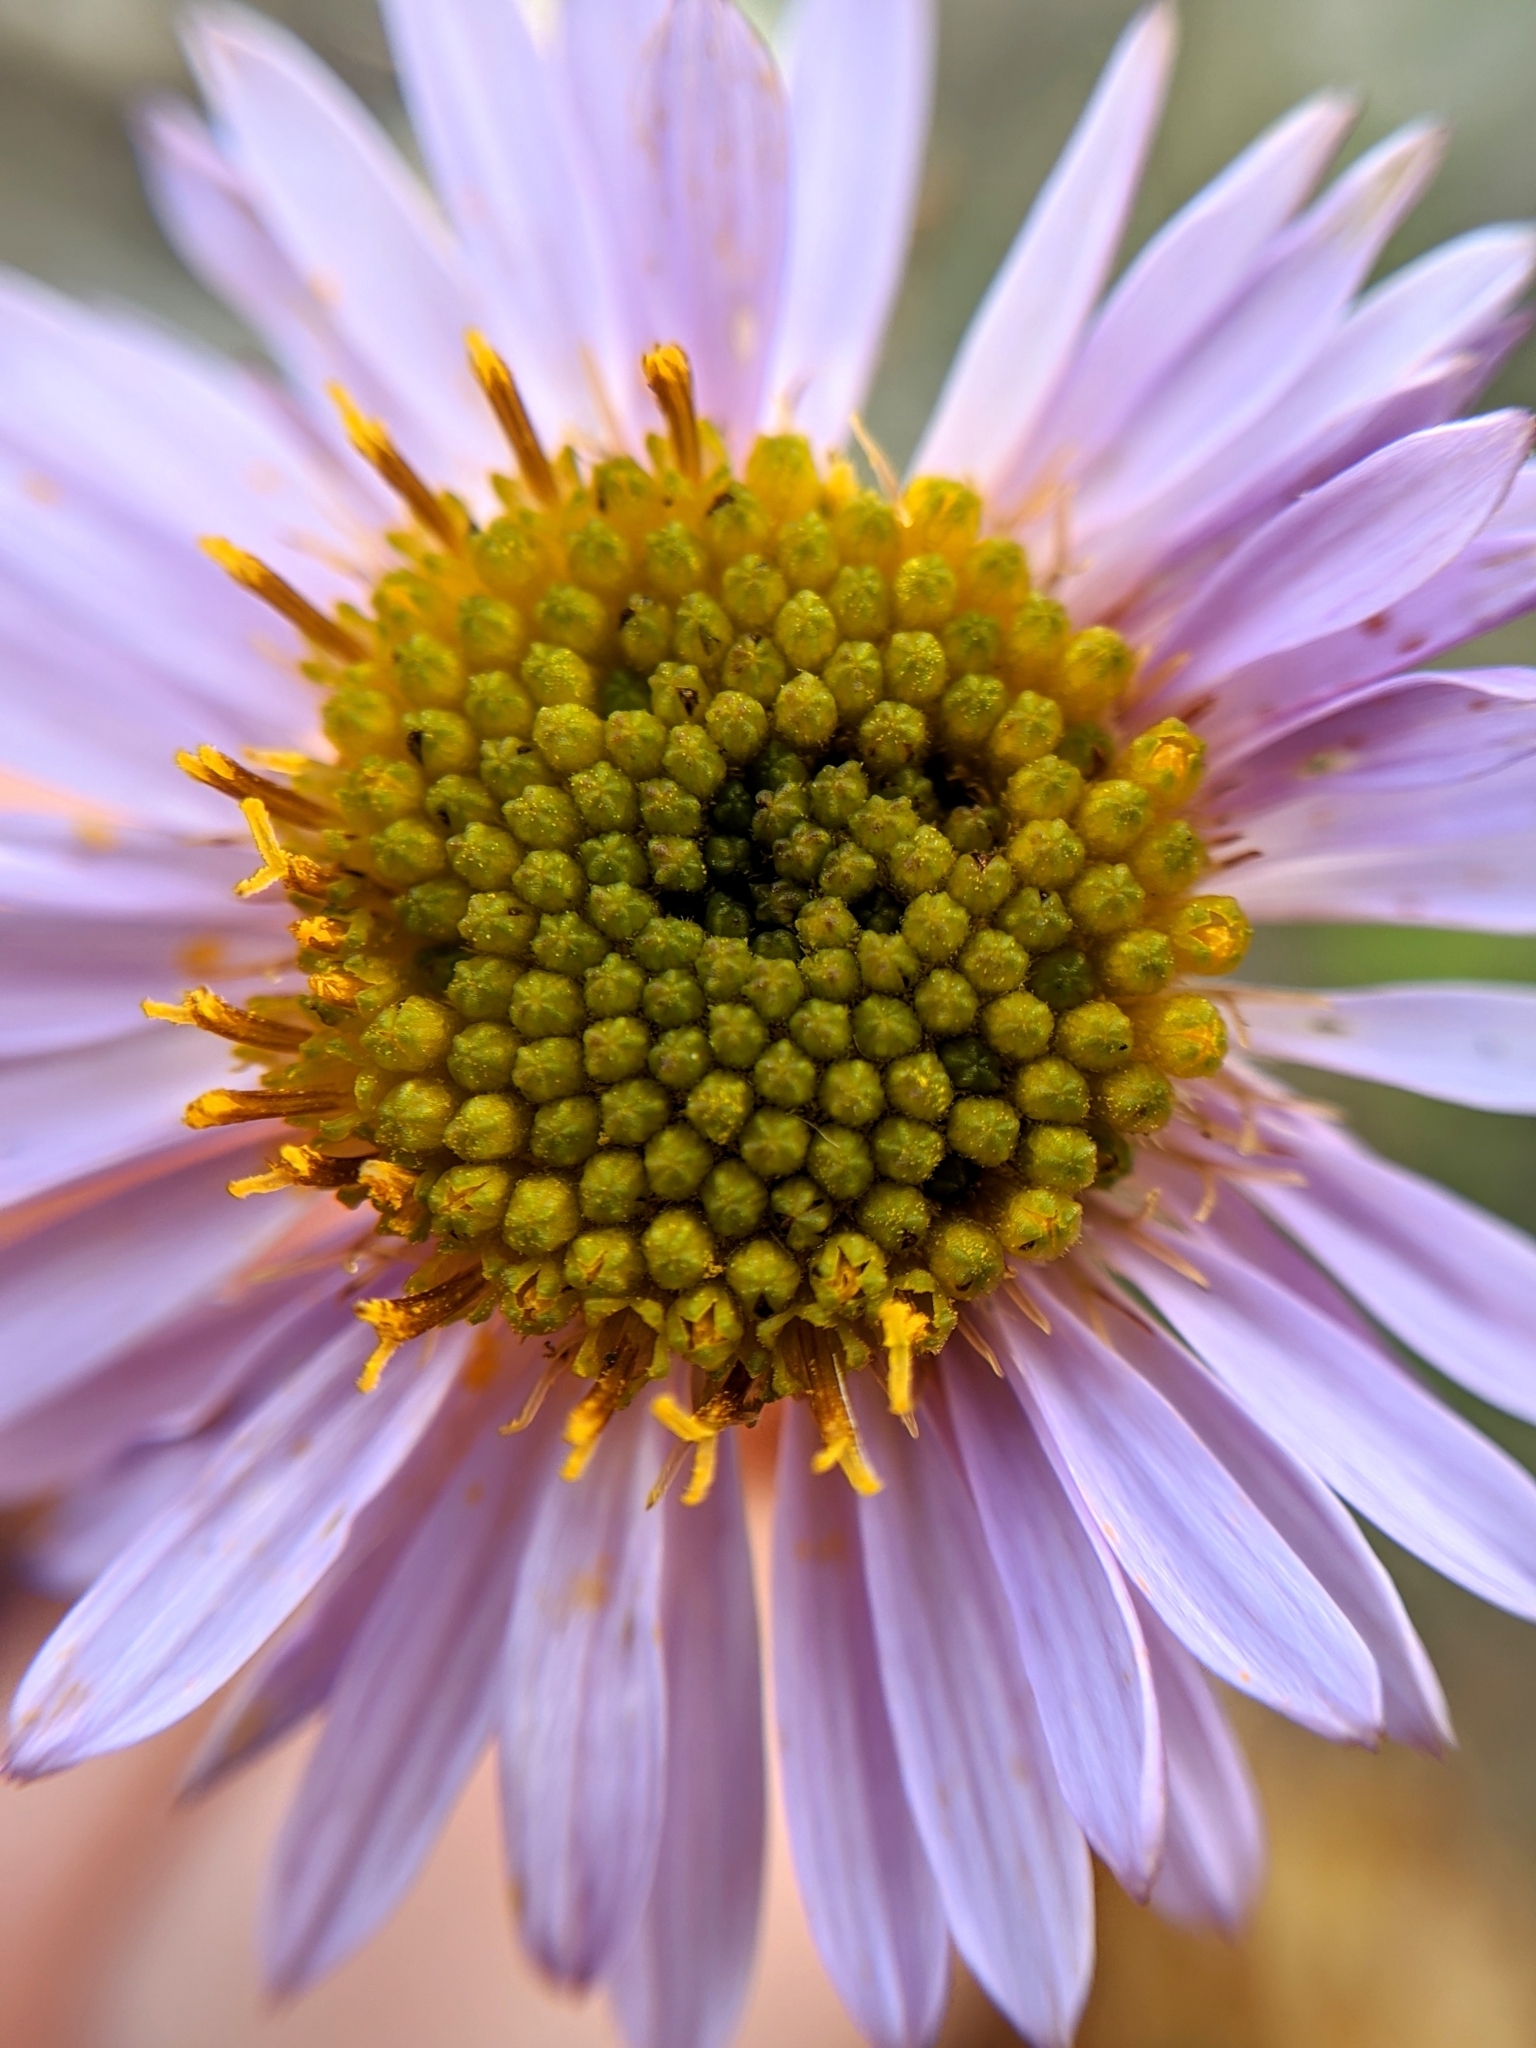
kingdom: Plantae
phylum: Tracheophyta
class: Magnoliopsida
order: Asterales
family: Asteraceae
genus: Erigeron
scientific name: Erigeron blochmaniae
